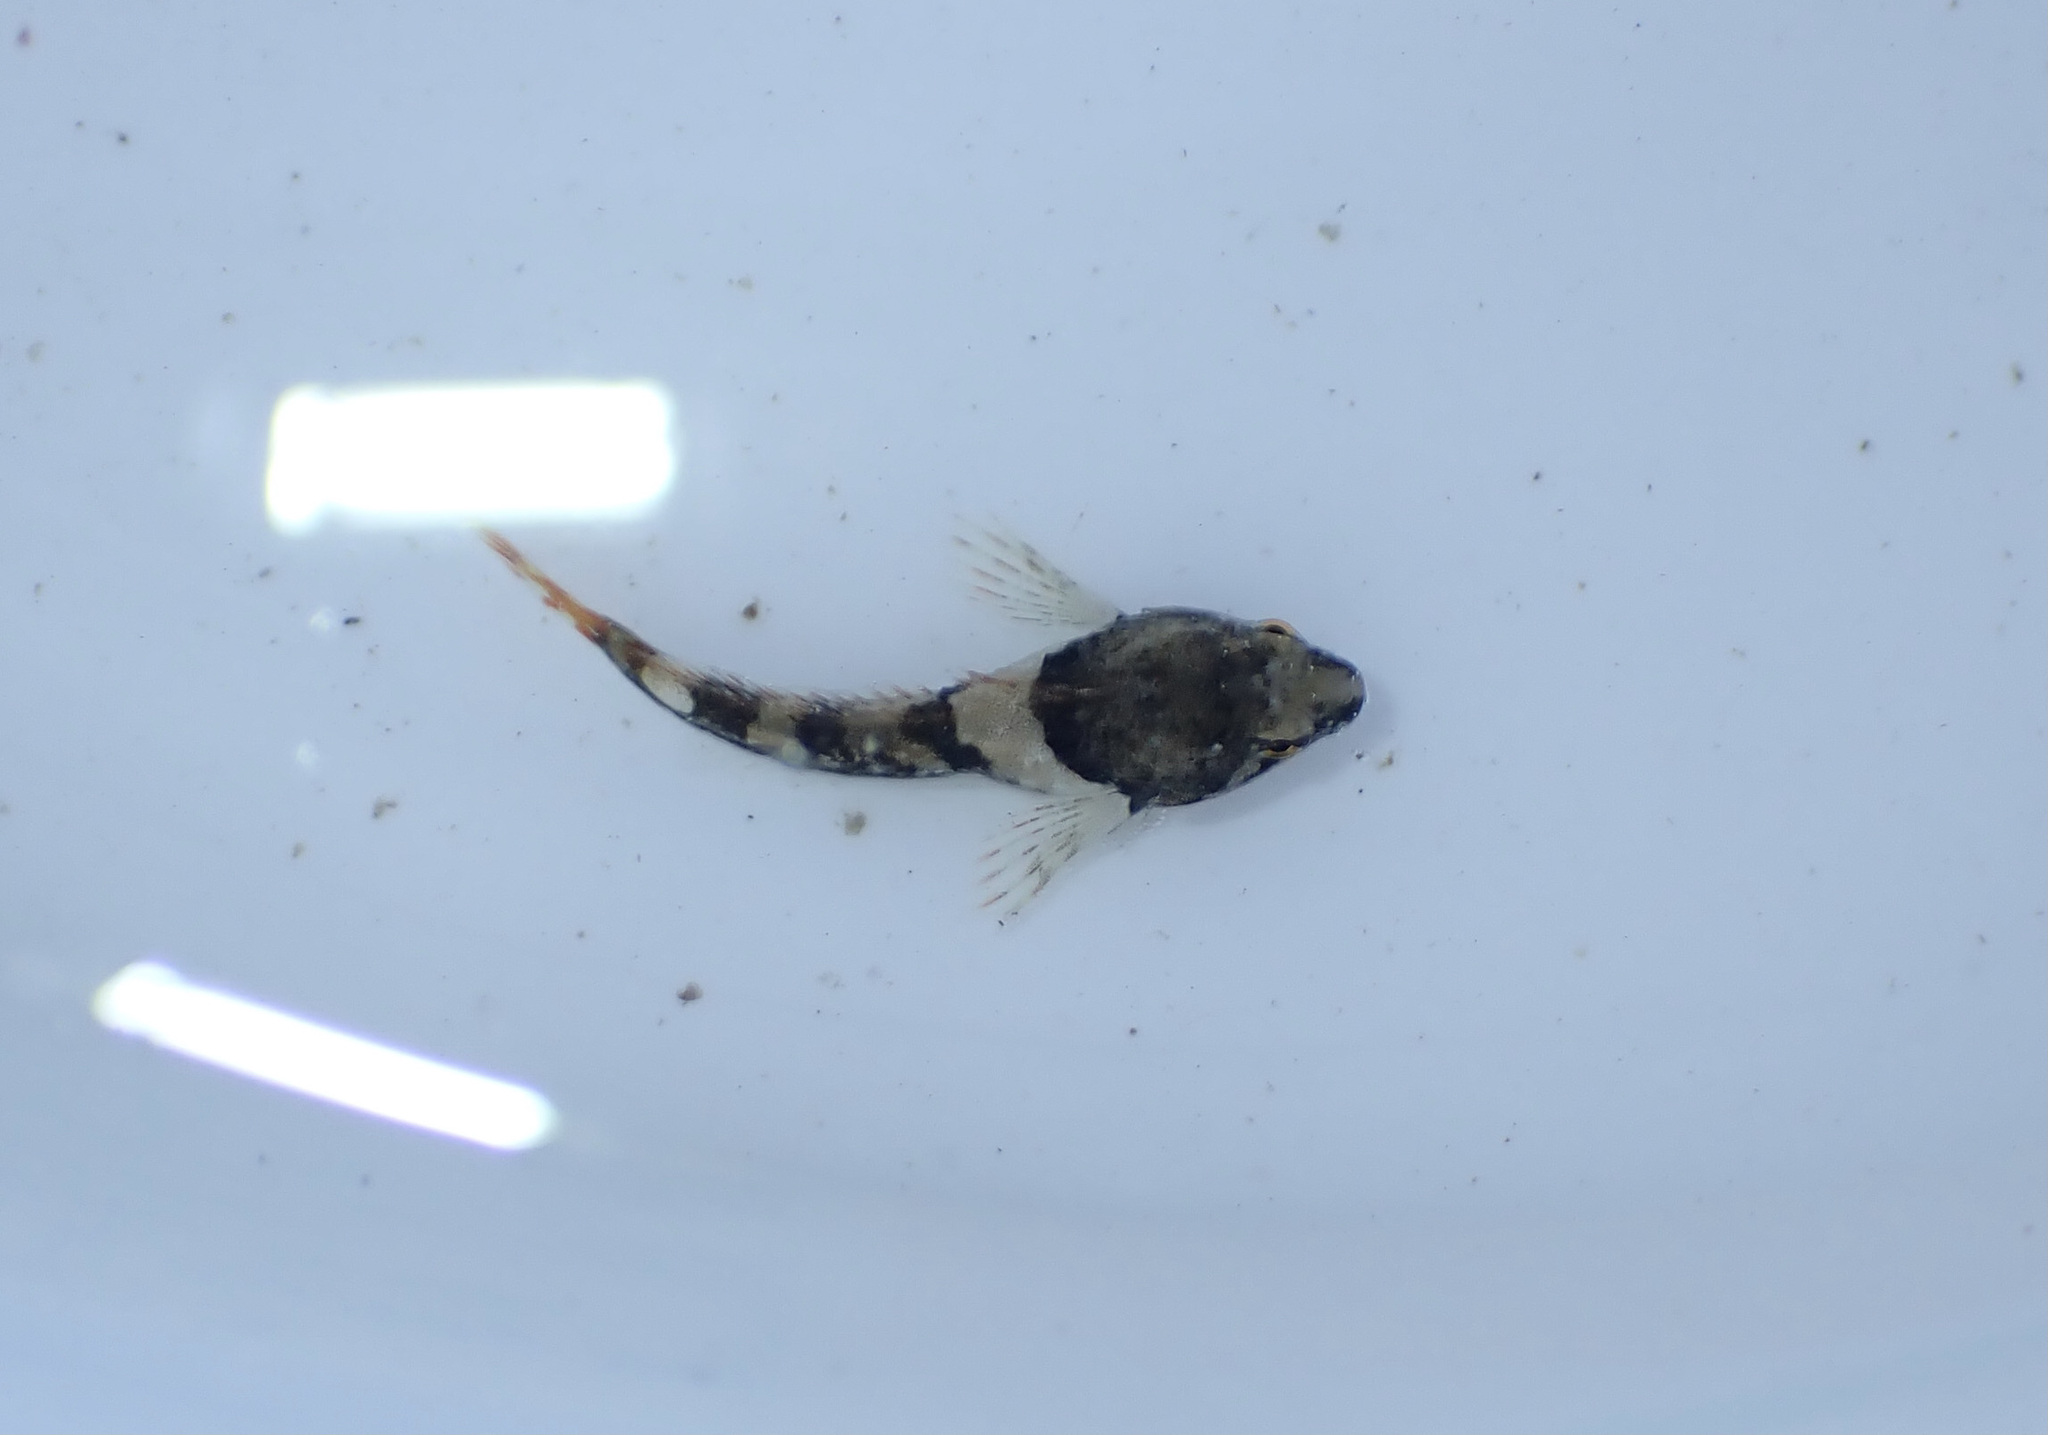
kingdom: Animalia
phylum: Chordata
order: Scorpaeniformes
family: Cottidae
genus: Oligocottus
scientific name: Oligocottus maculosus
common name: Tidepool sculpin
